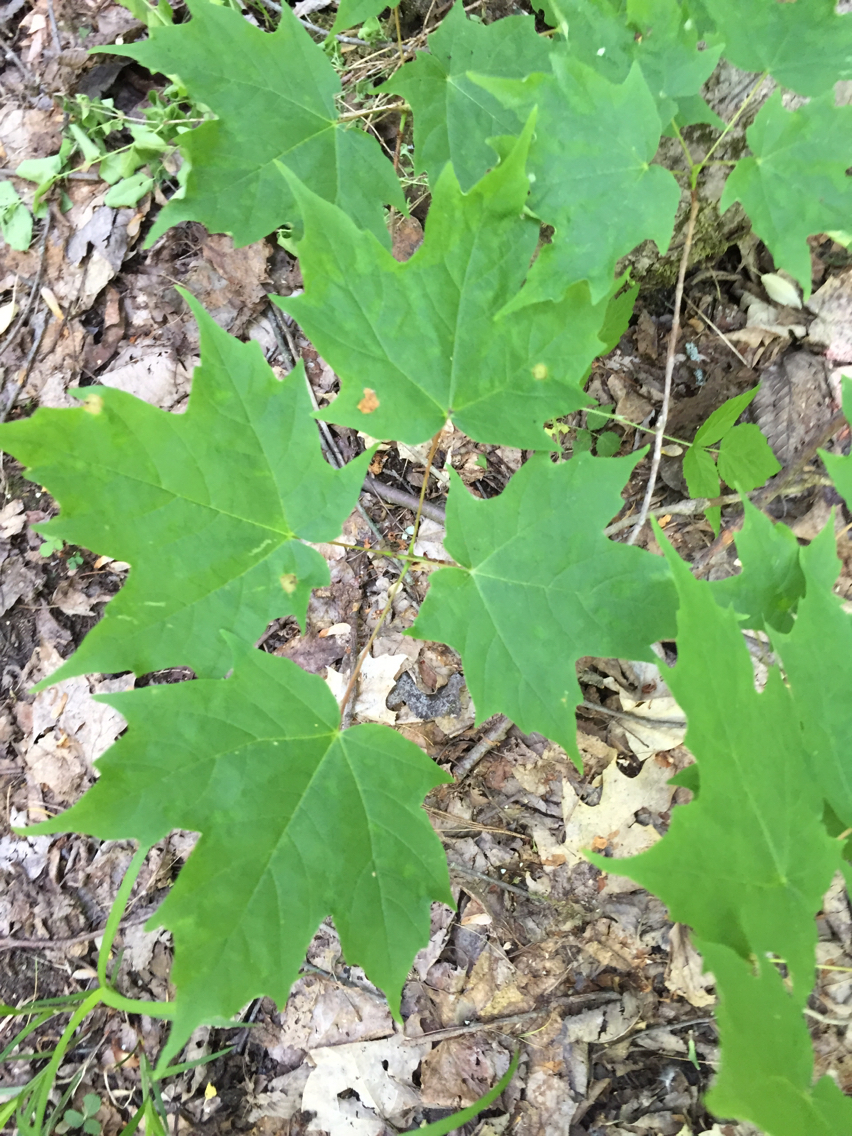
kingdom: Plantae
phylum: Tracheophyta
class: Magnoliopsida
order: Sapindales
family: Sapindaceae
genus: Acer
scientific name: Acer saccharum
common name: Sugar maple
